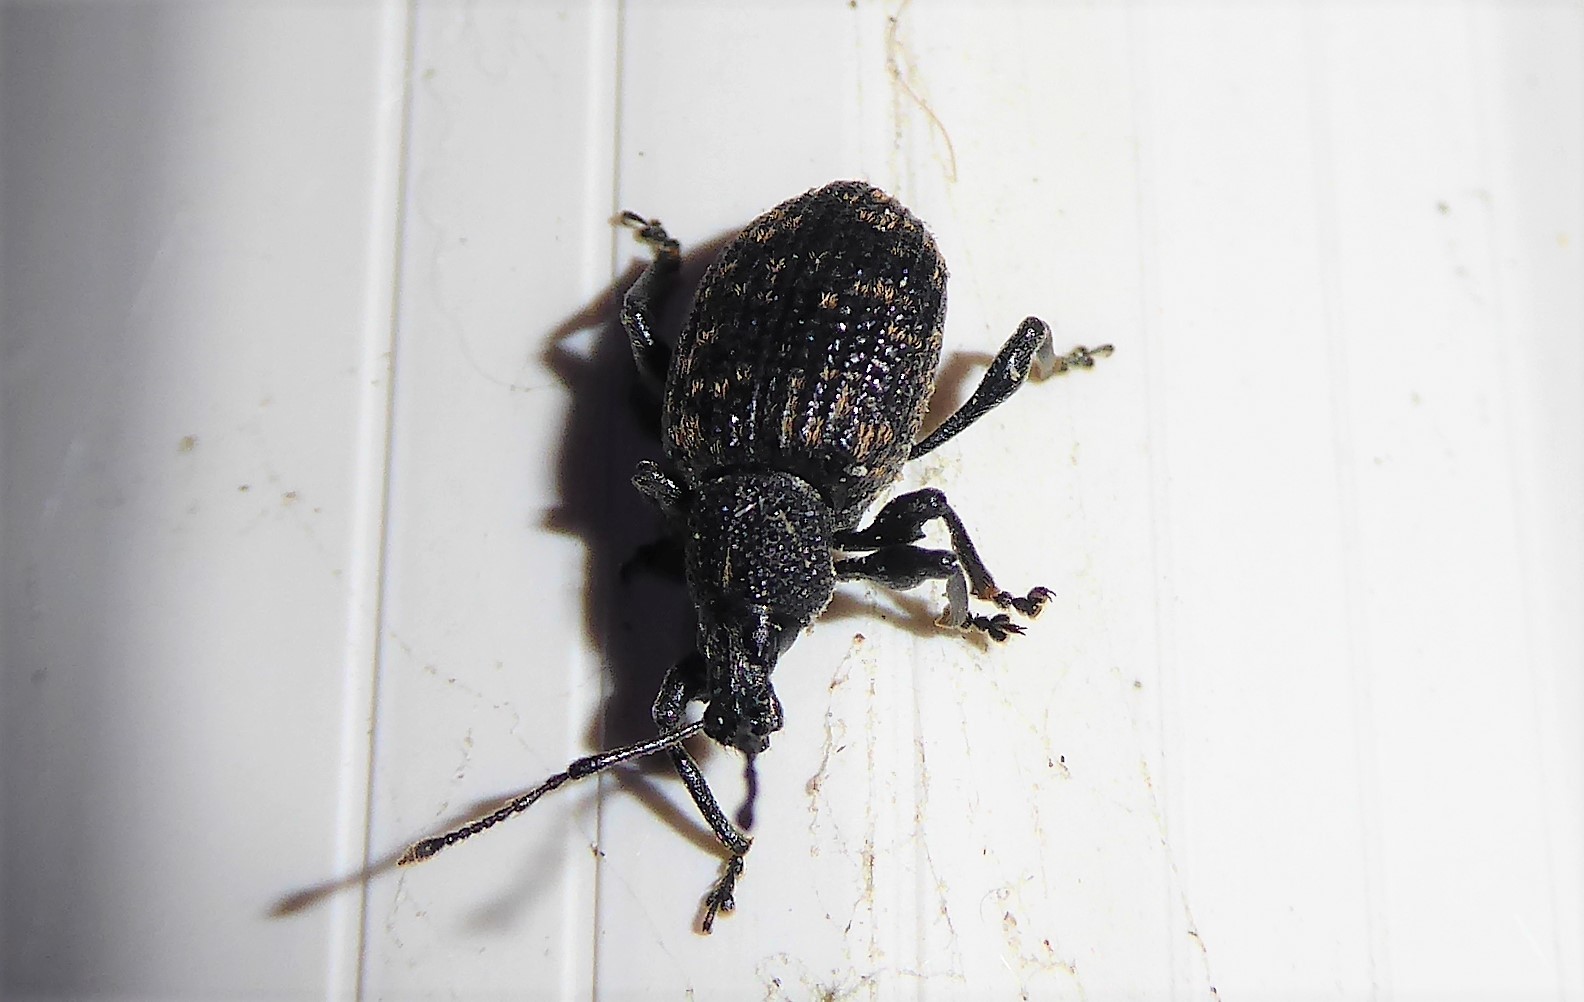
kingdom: Animalia
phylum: Arthropoda
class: Insecta
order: Coleoptera
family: Curculionidae
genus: Otiorhynchus
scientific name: Otiorhynchus sulcatus
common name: Black vine weevil
